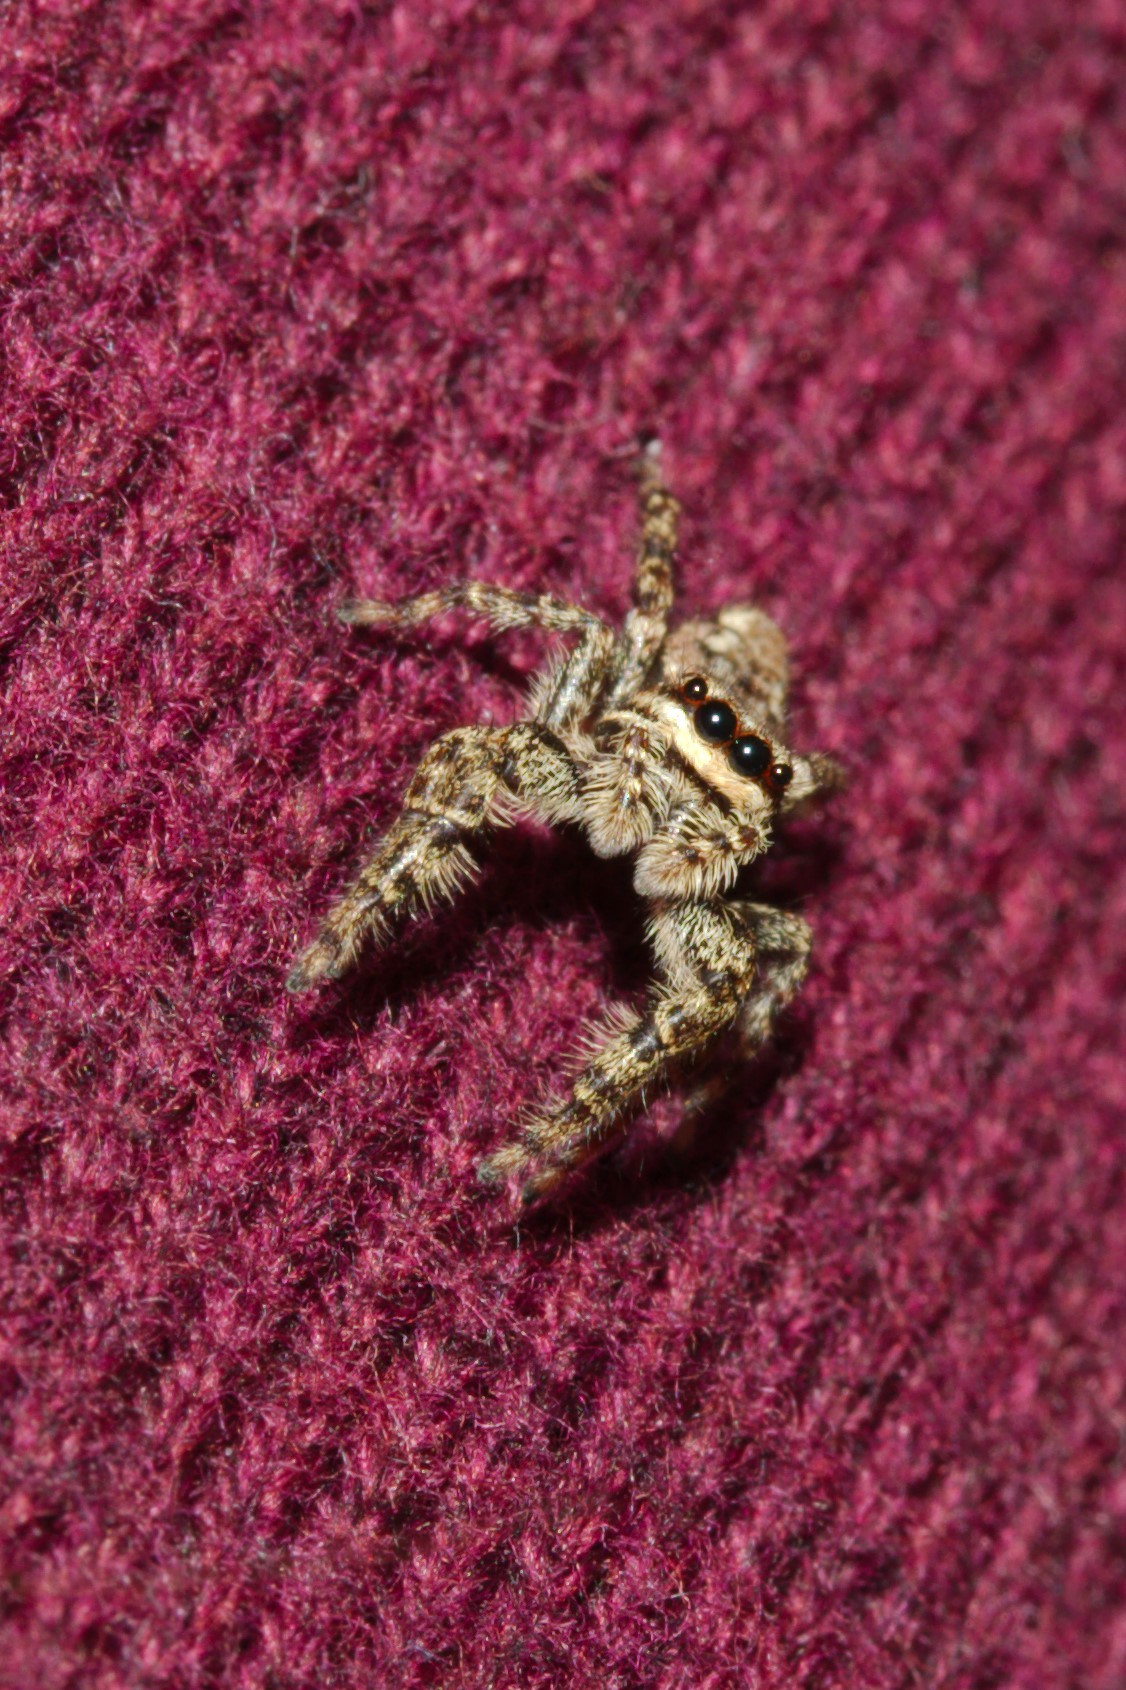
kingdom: Animalia
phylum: Arthropoda
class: Arachnida
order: Araneae
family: Salticidae
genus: Marpissa
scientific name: Marpissa muscosa
